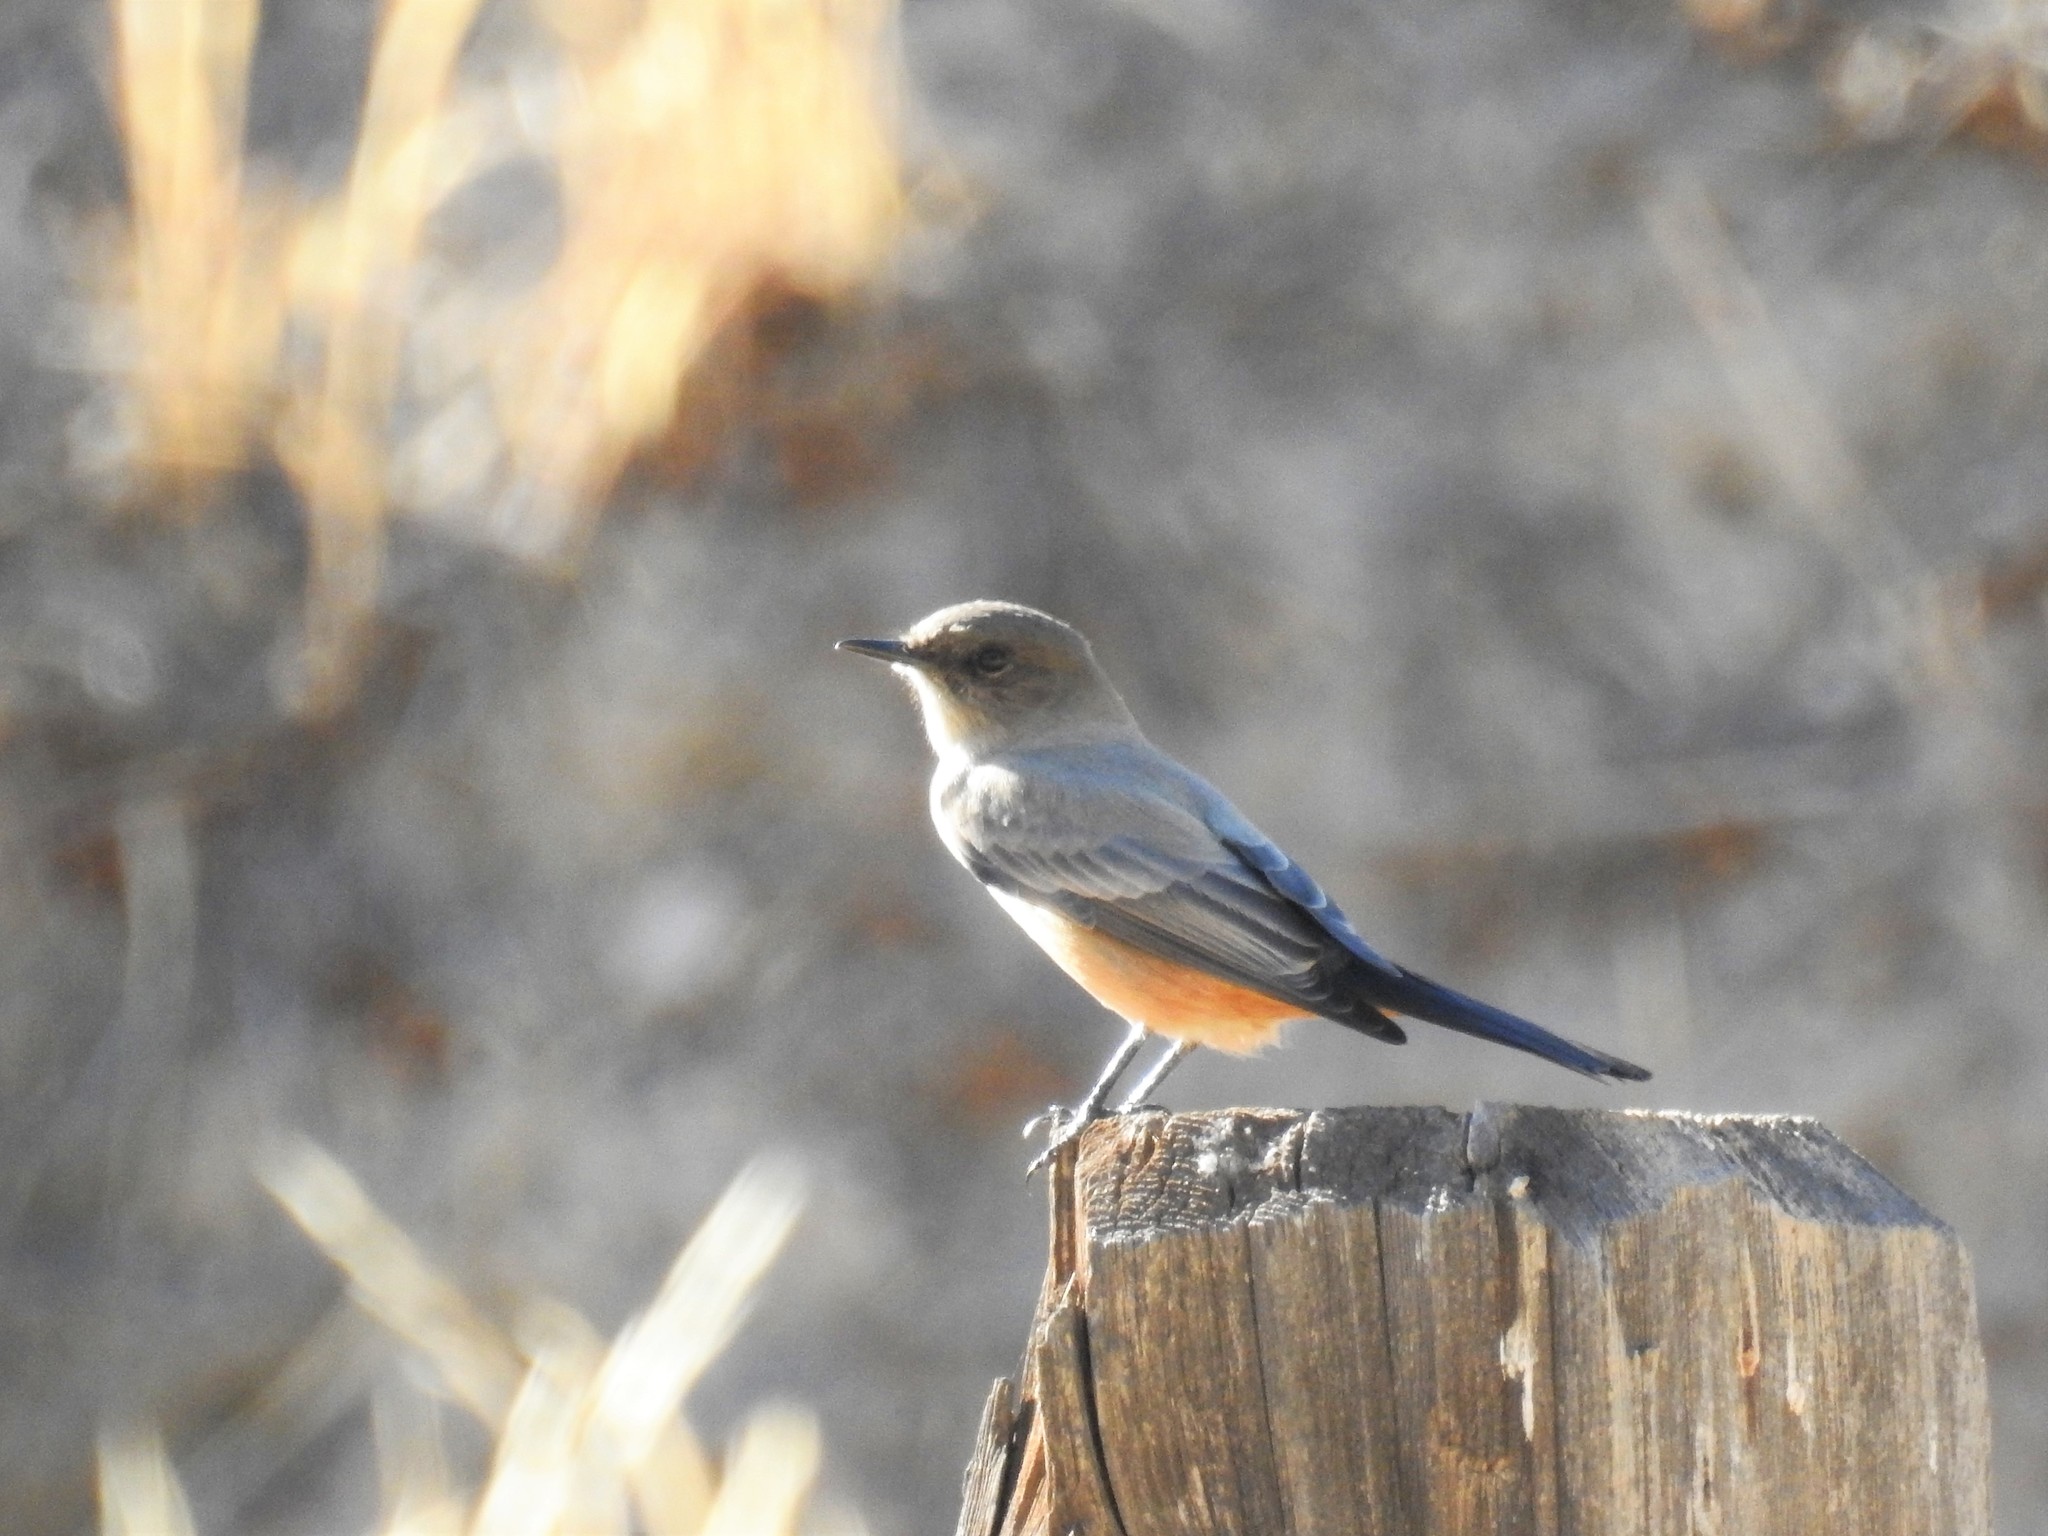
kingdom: Animalia
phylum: Chordata
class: Aves
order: Passeriformes
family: Tyrannidae
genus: Sayornis
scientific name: Sayornis saya
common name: Say's phoebe
